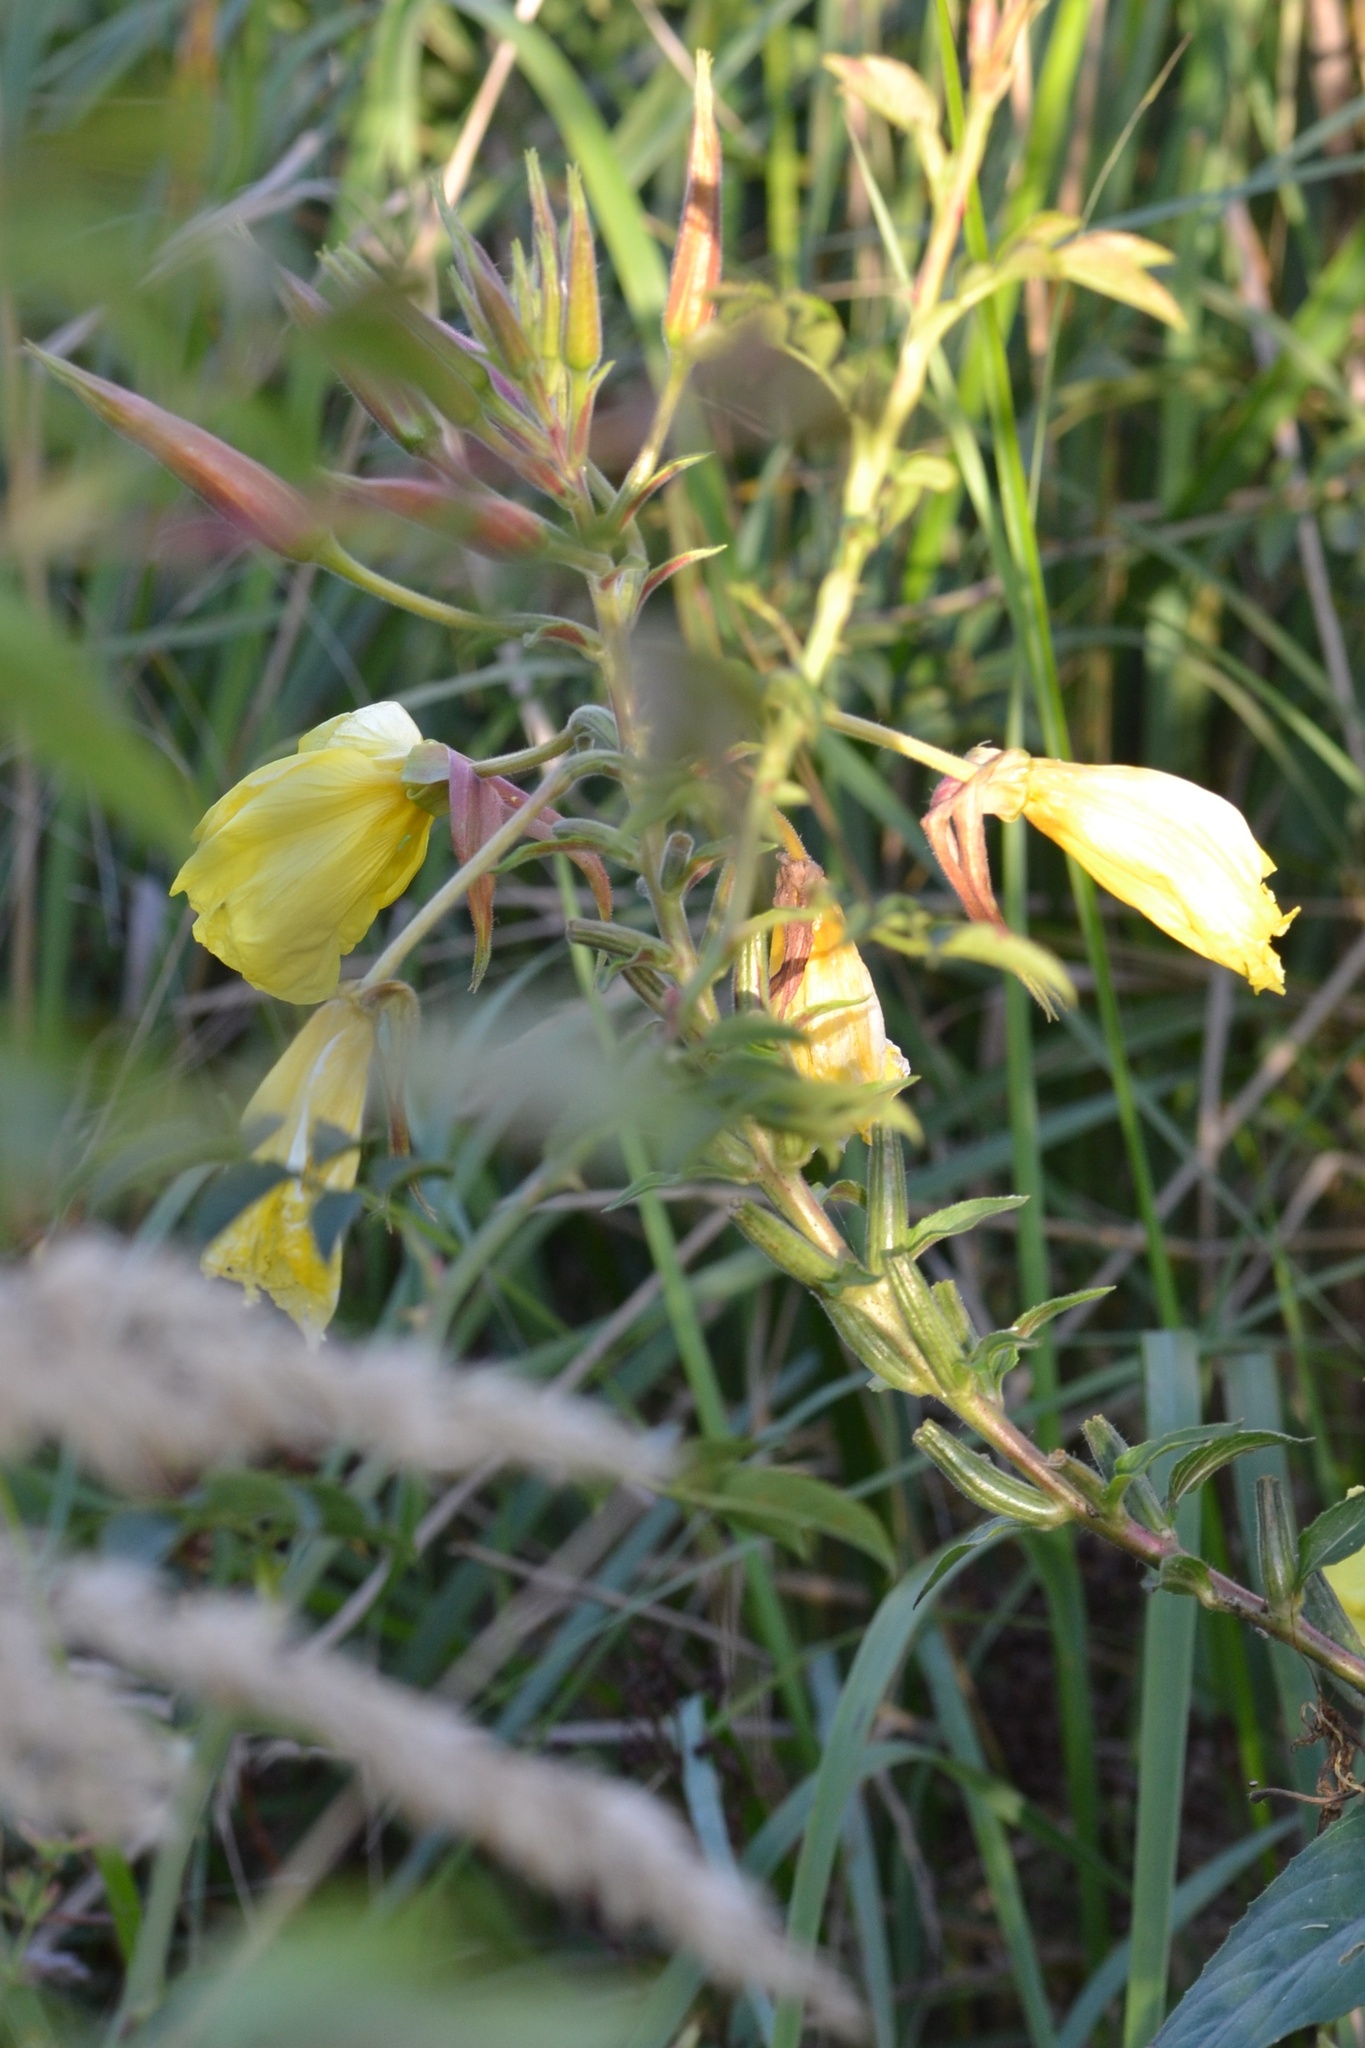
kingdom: Plantae
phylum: Tracheophyta
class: Magnoliopsida
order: Myrtales
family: Onagraceae
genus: Oenothera
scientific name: Oenothera glazioviana
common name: Large-flowered evening-primrose
